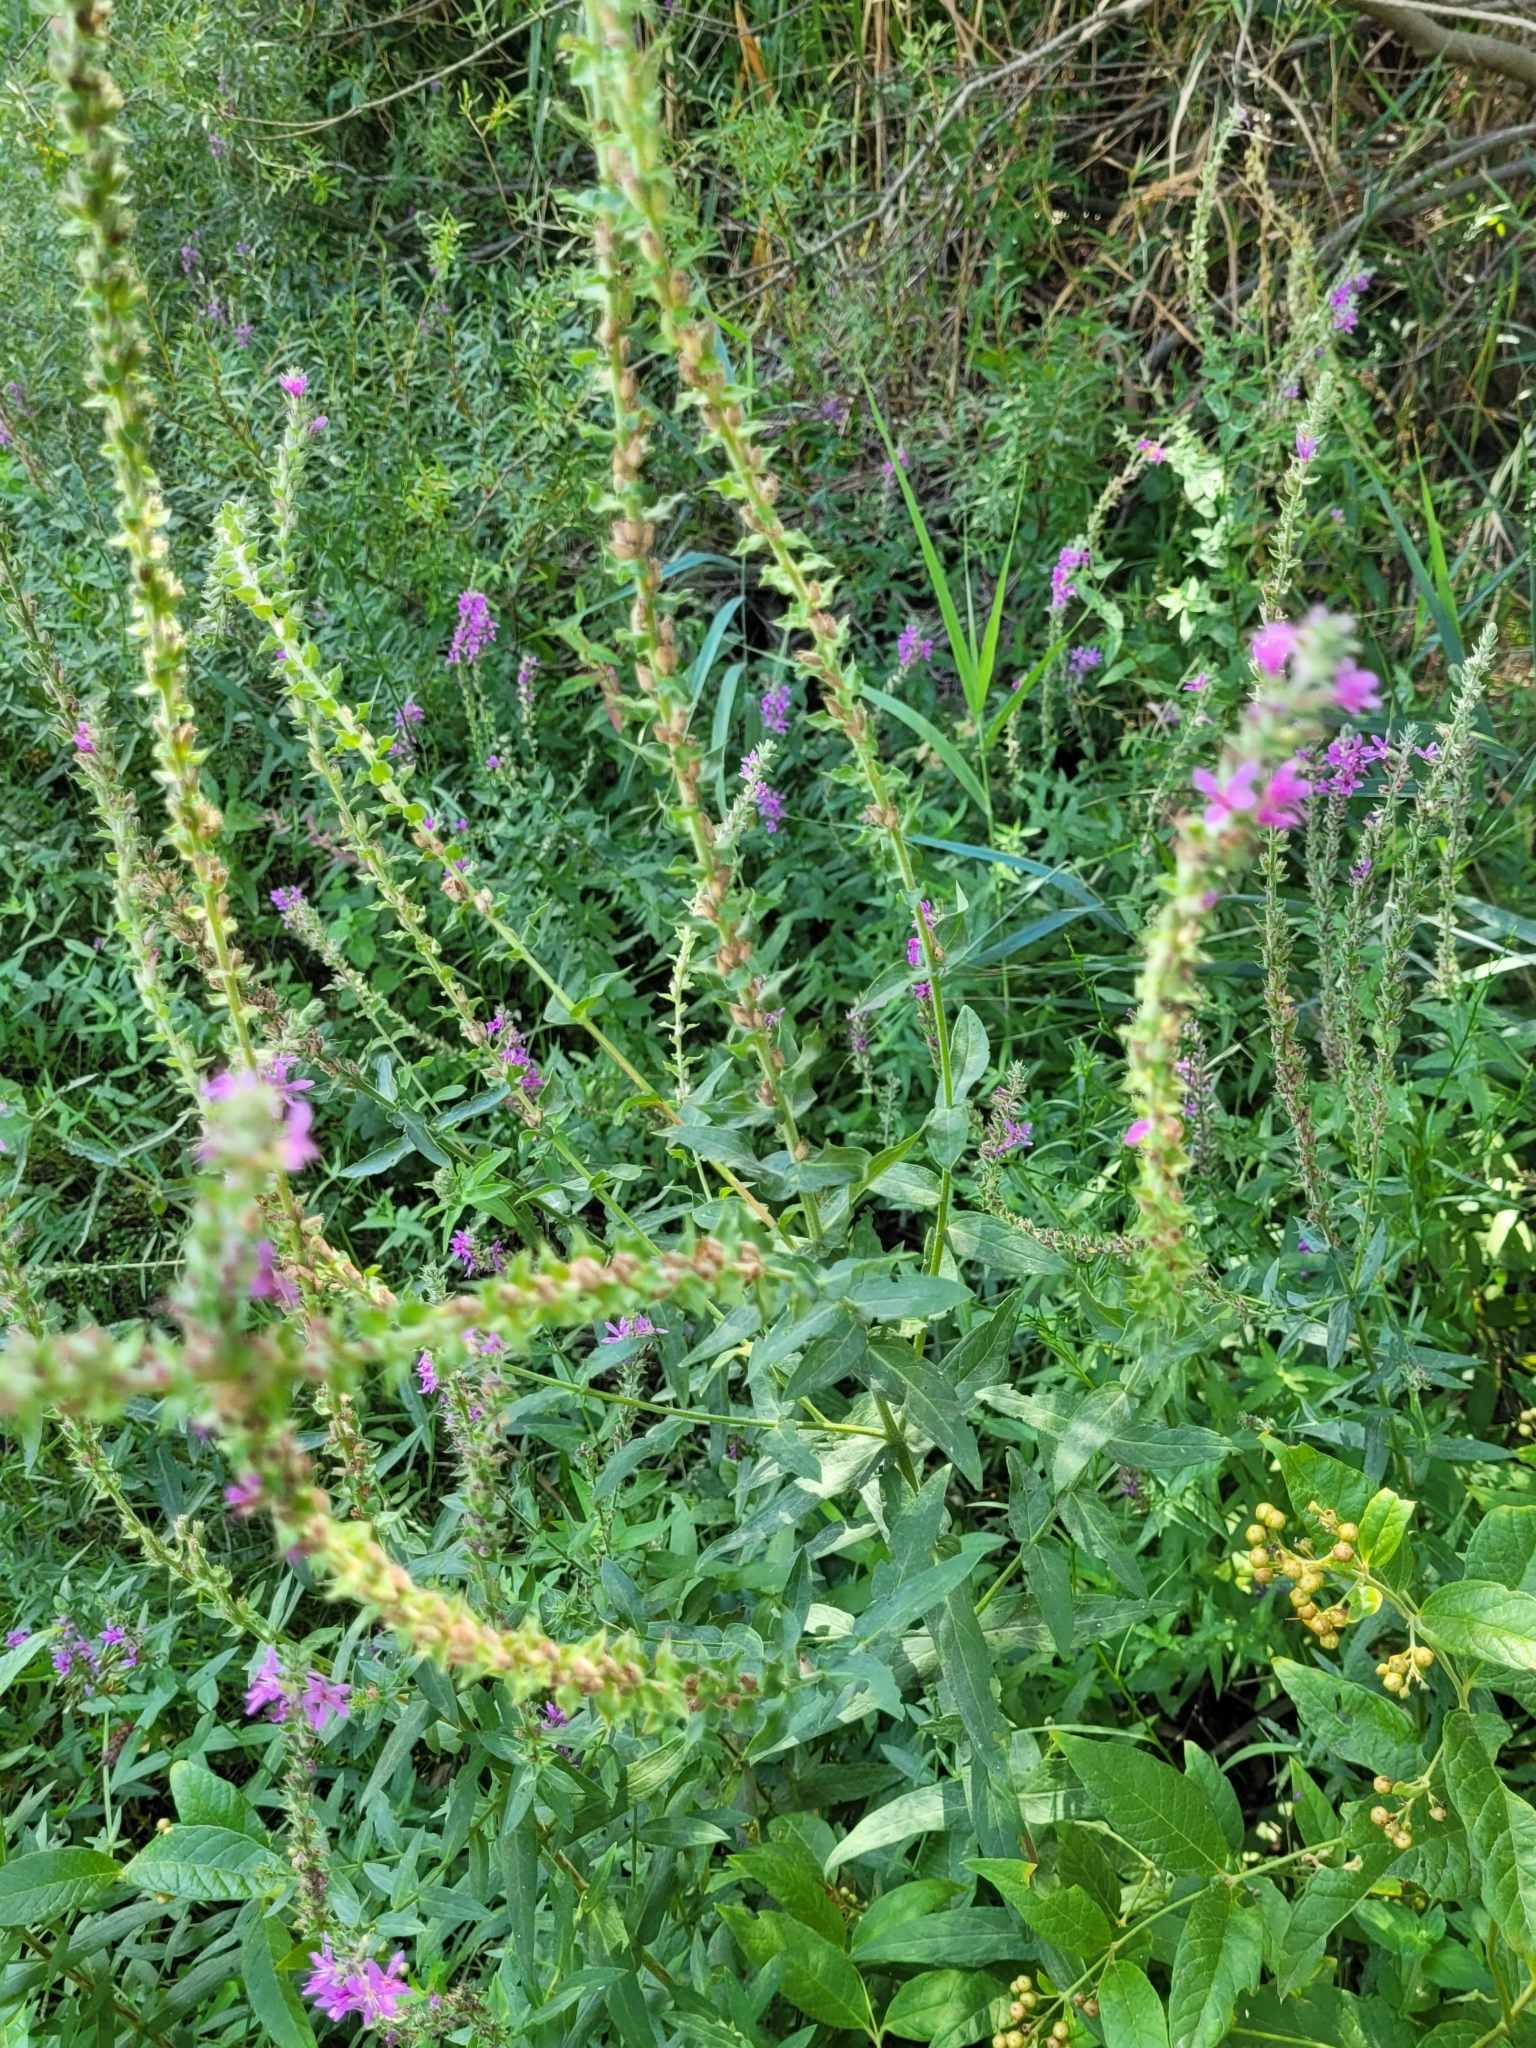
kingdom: Plantae
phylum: Tracheophyta
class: Magnoliopsida
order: Myrtales
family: Lythraceae
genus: Lythrum
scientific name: Lythrum salicaria
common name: Purple loosestrife
